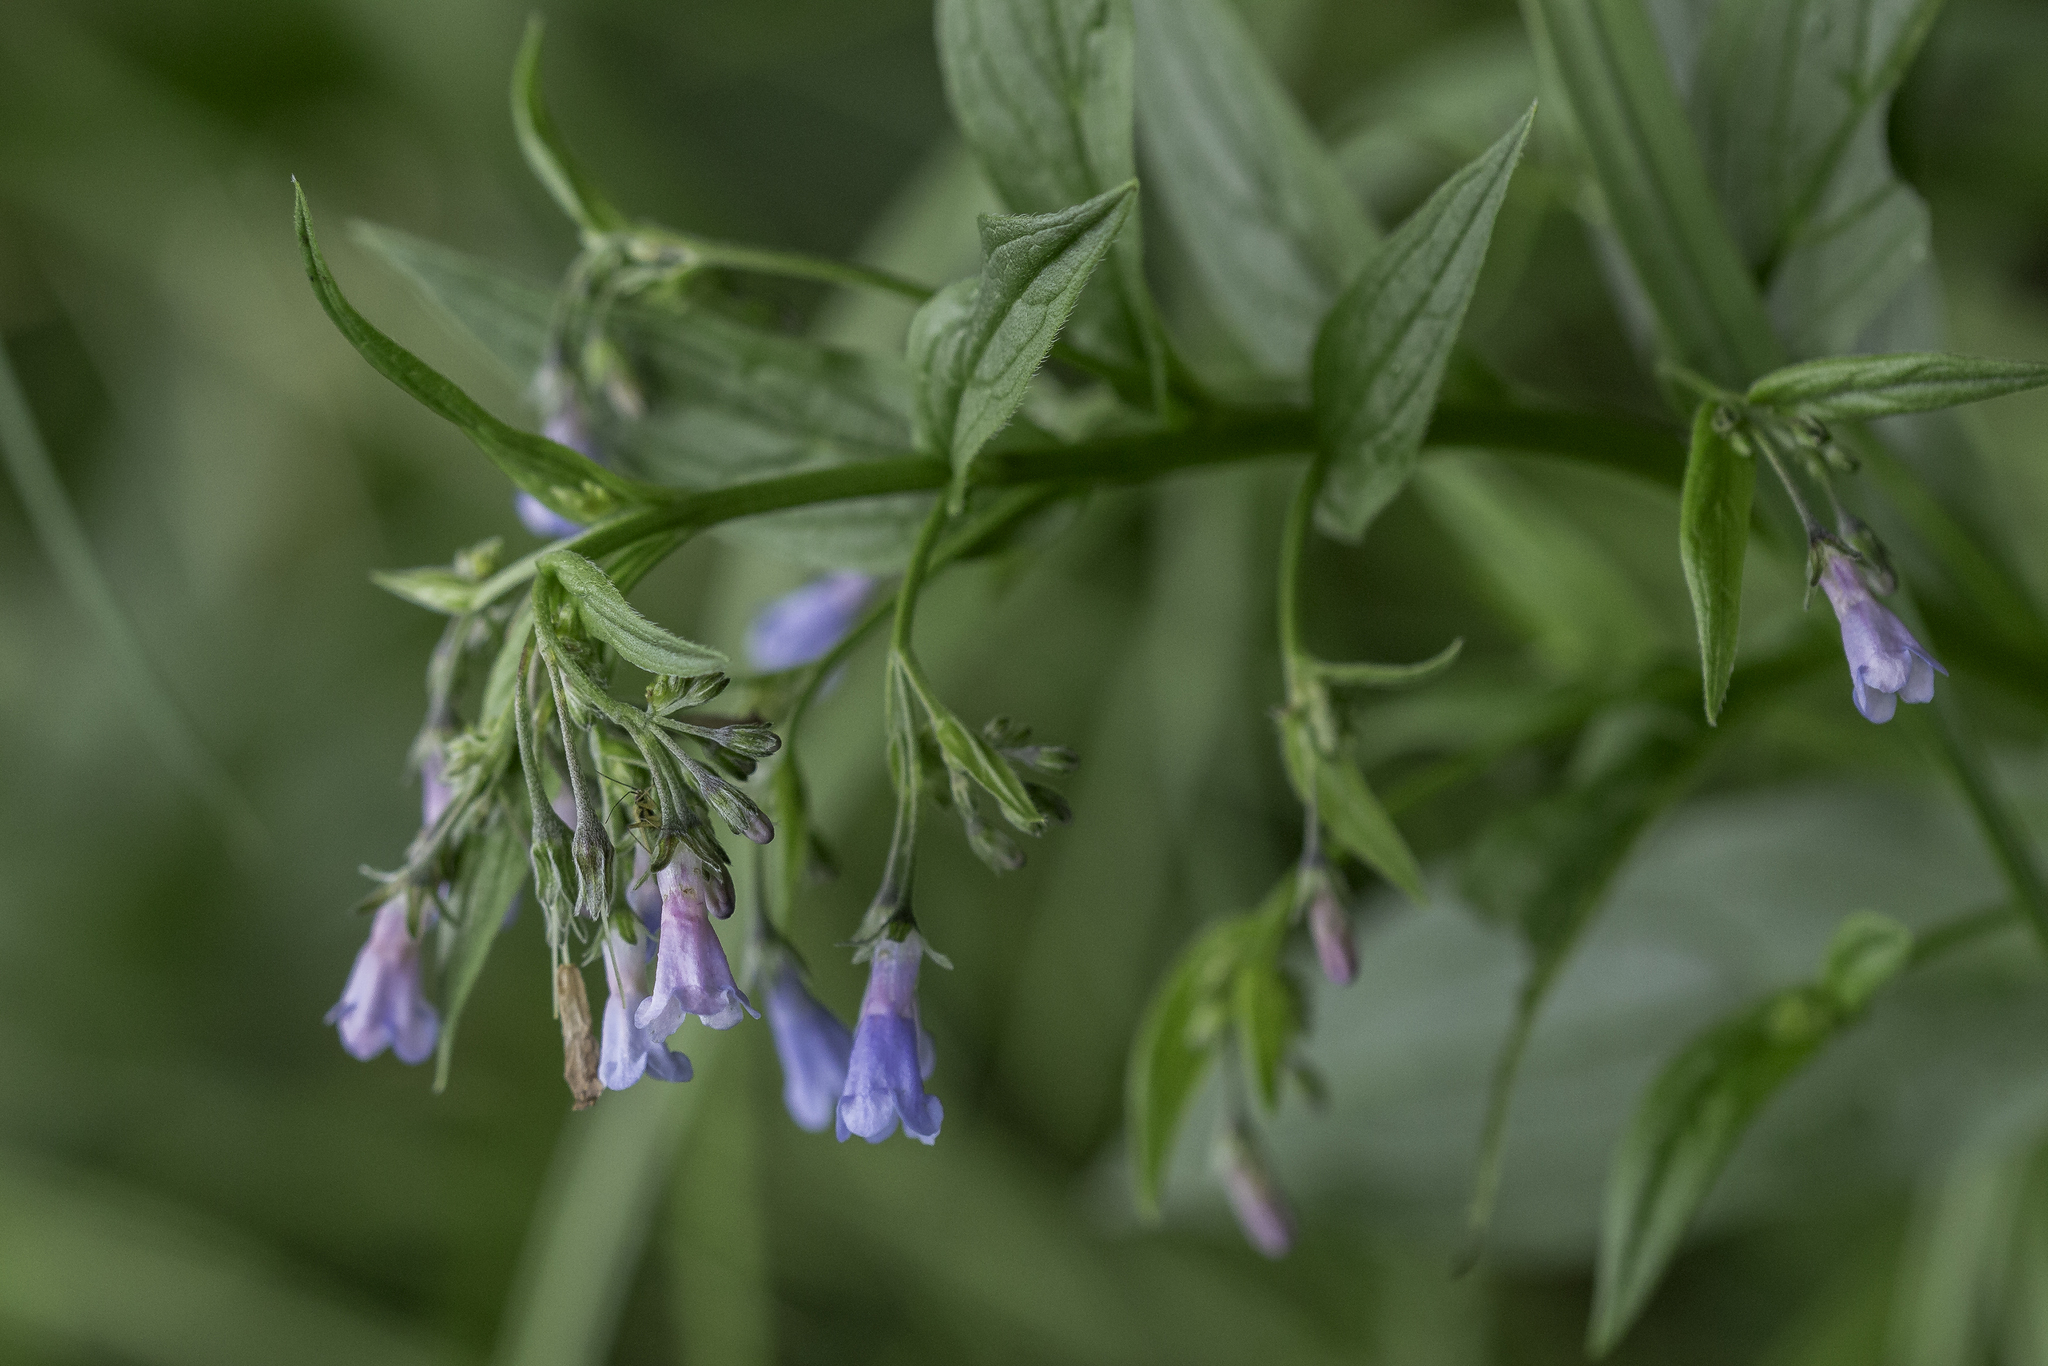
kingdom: Plantae
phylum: Tracheophyta
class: Magnoliopsida
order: Boraginales
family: Boraginaceae
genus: Mertensia
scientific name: Mertensia franciscana
